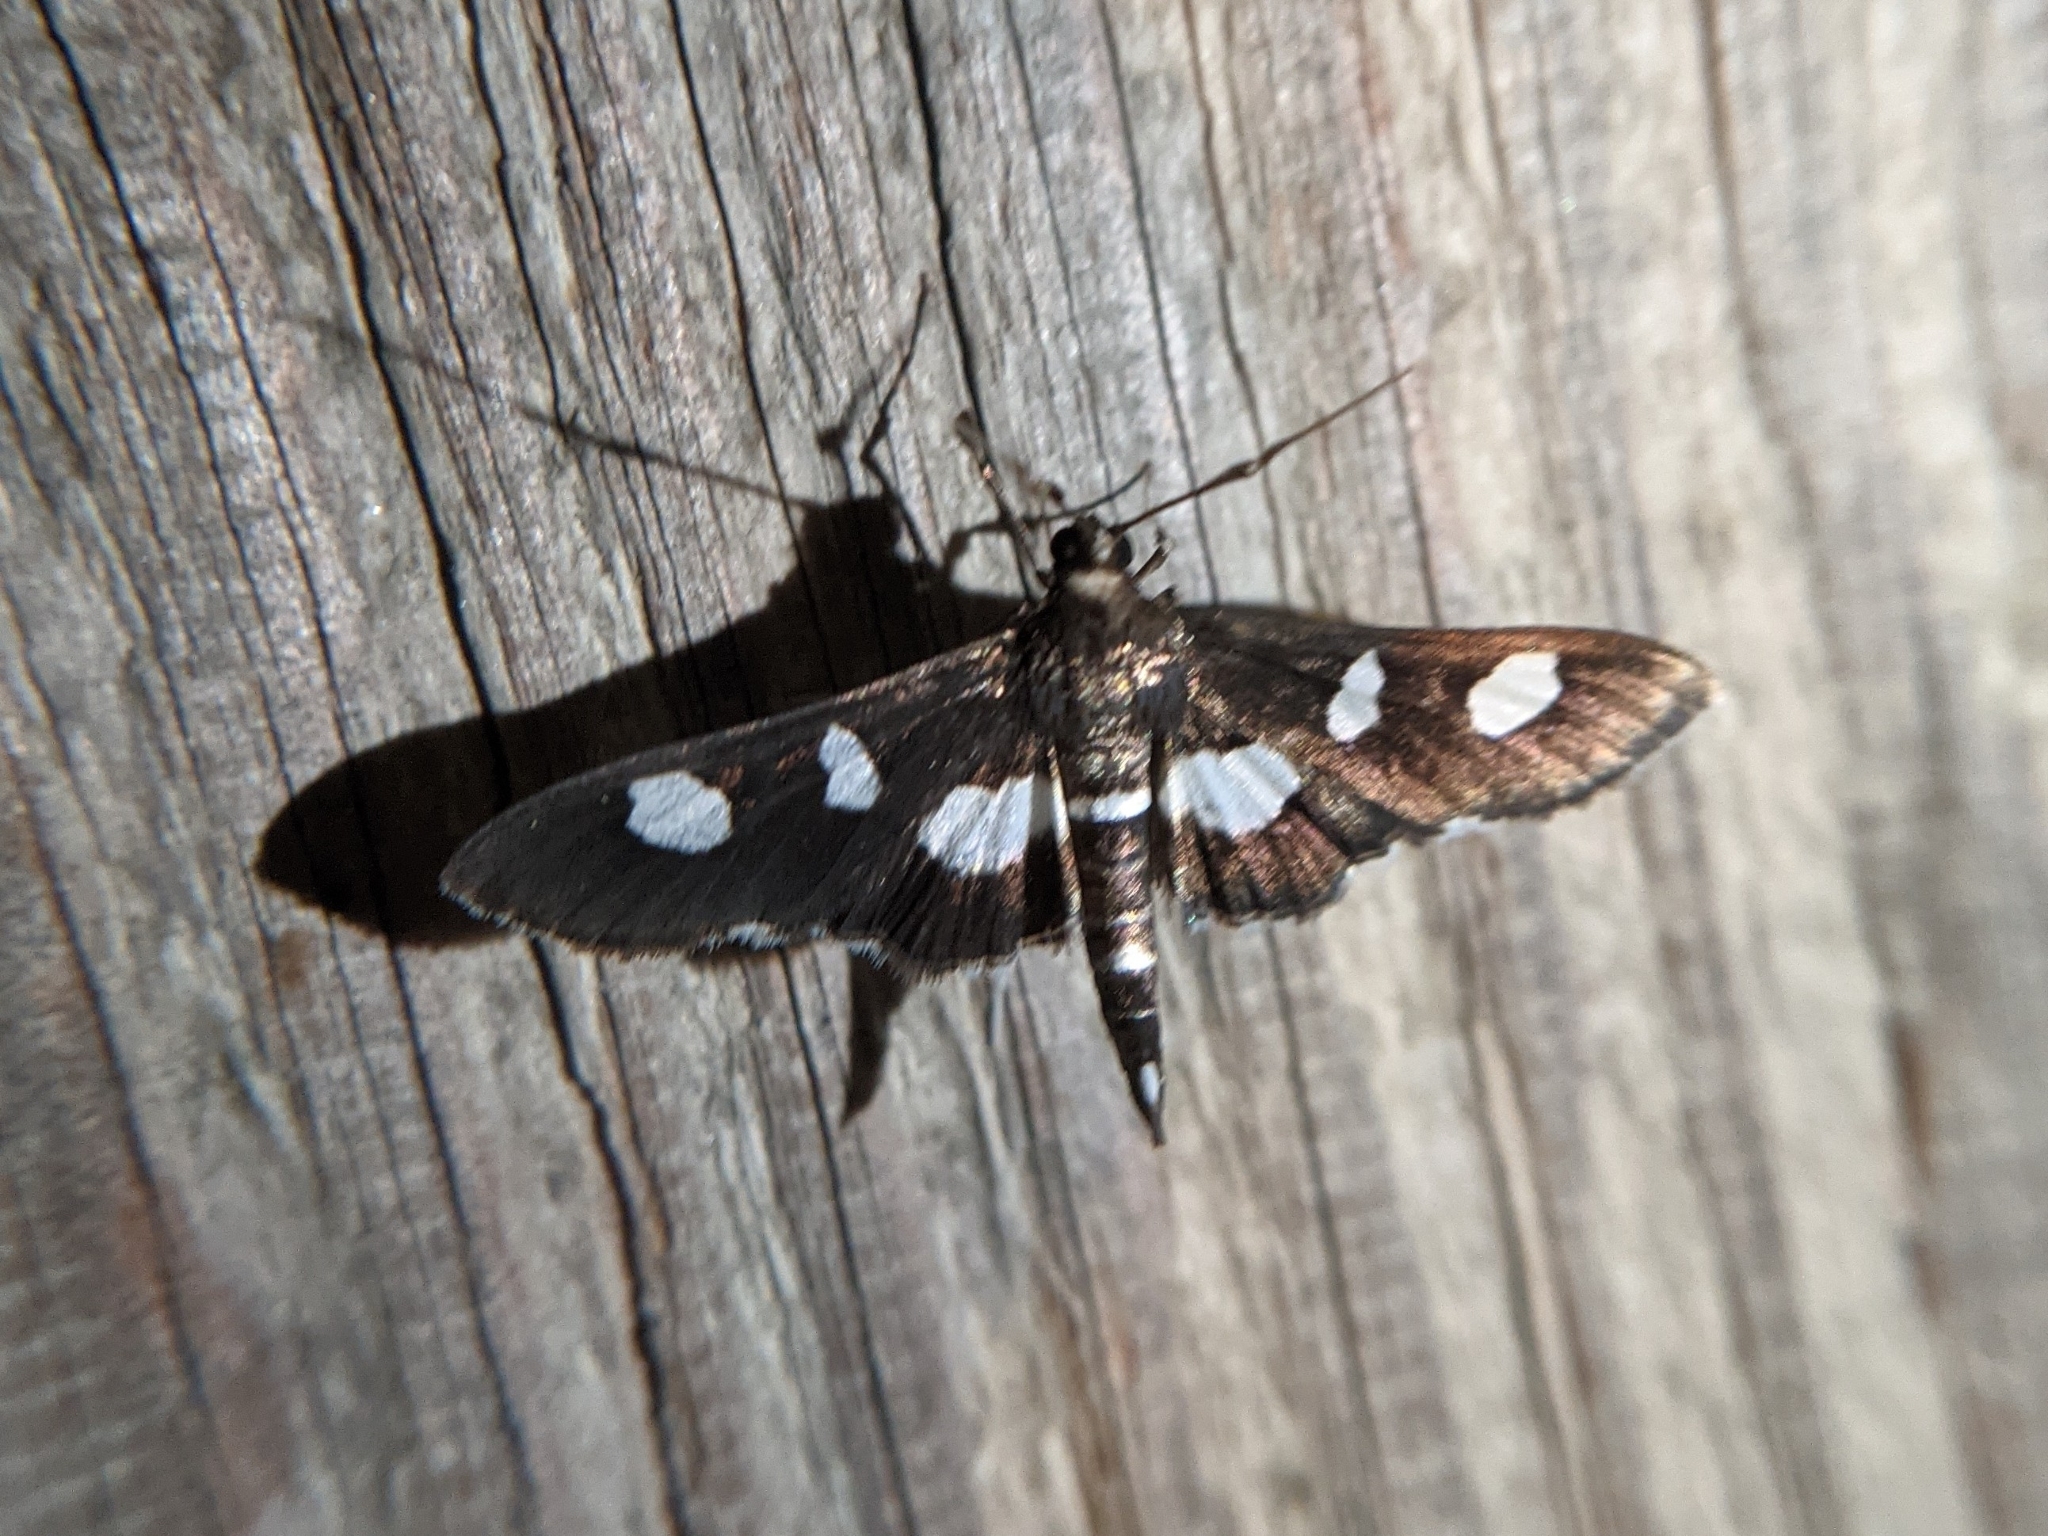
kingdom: Animalia
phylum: Arthropoda
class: Insecta
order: Lepidoptera
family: Crambidae
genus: Desmia
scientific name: Desmia
